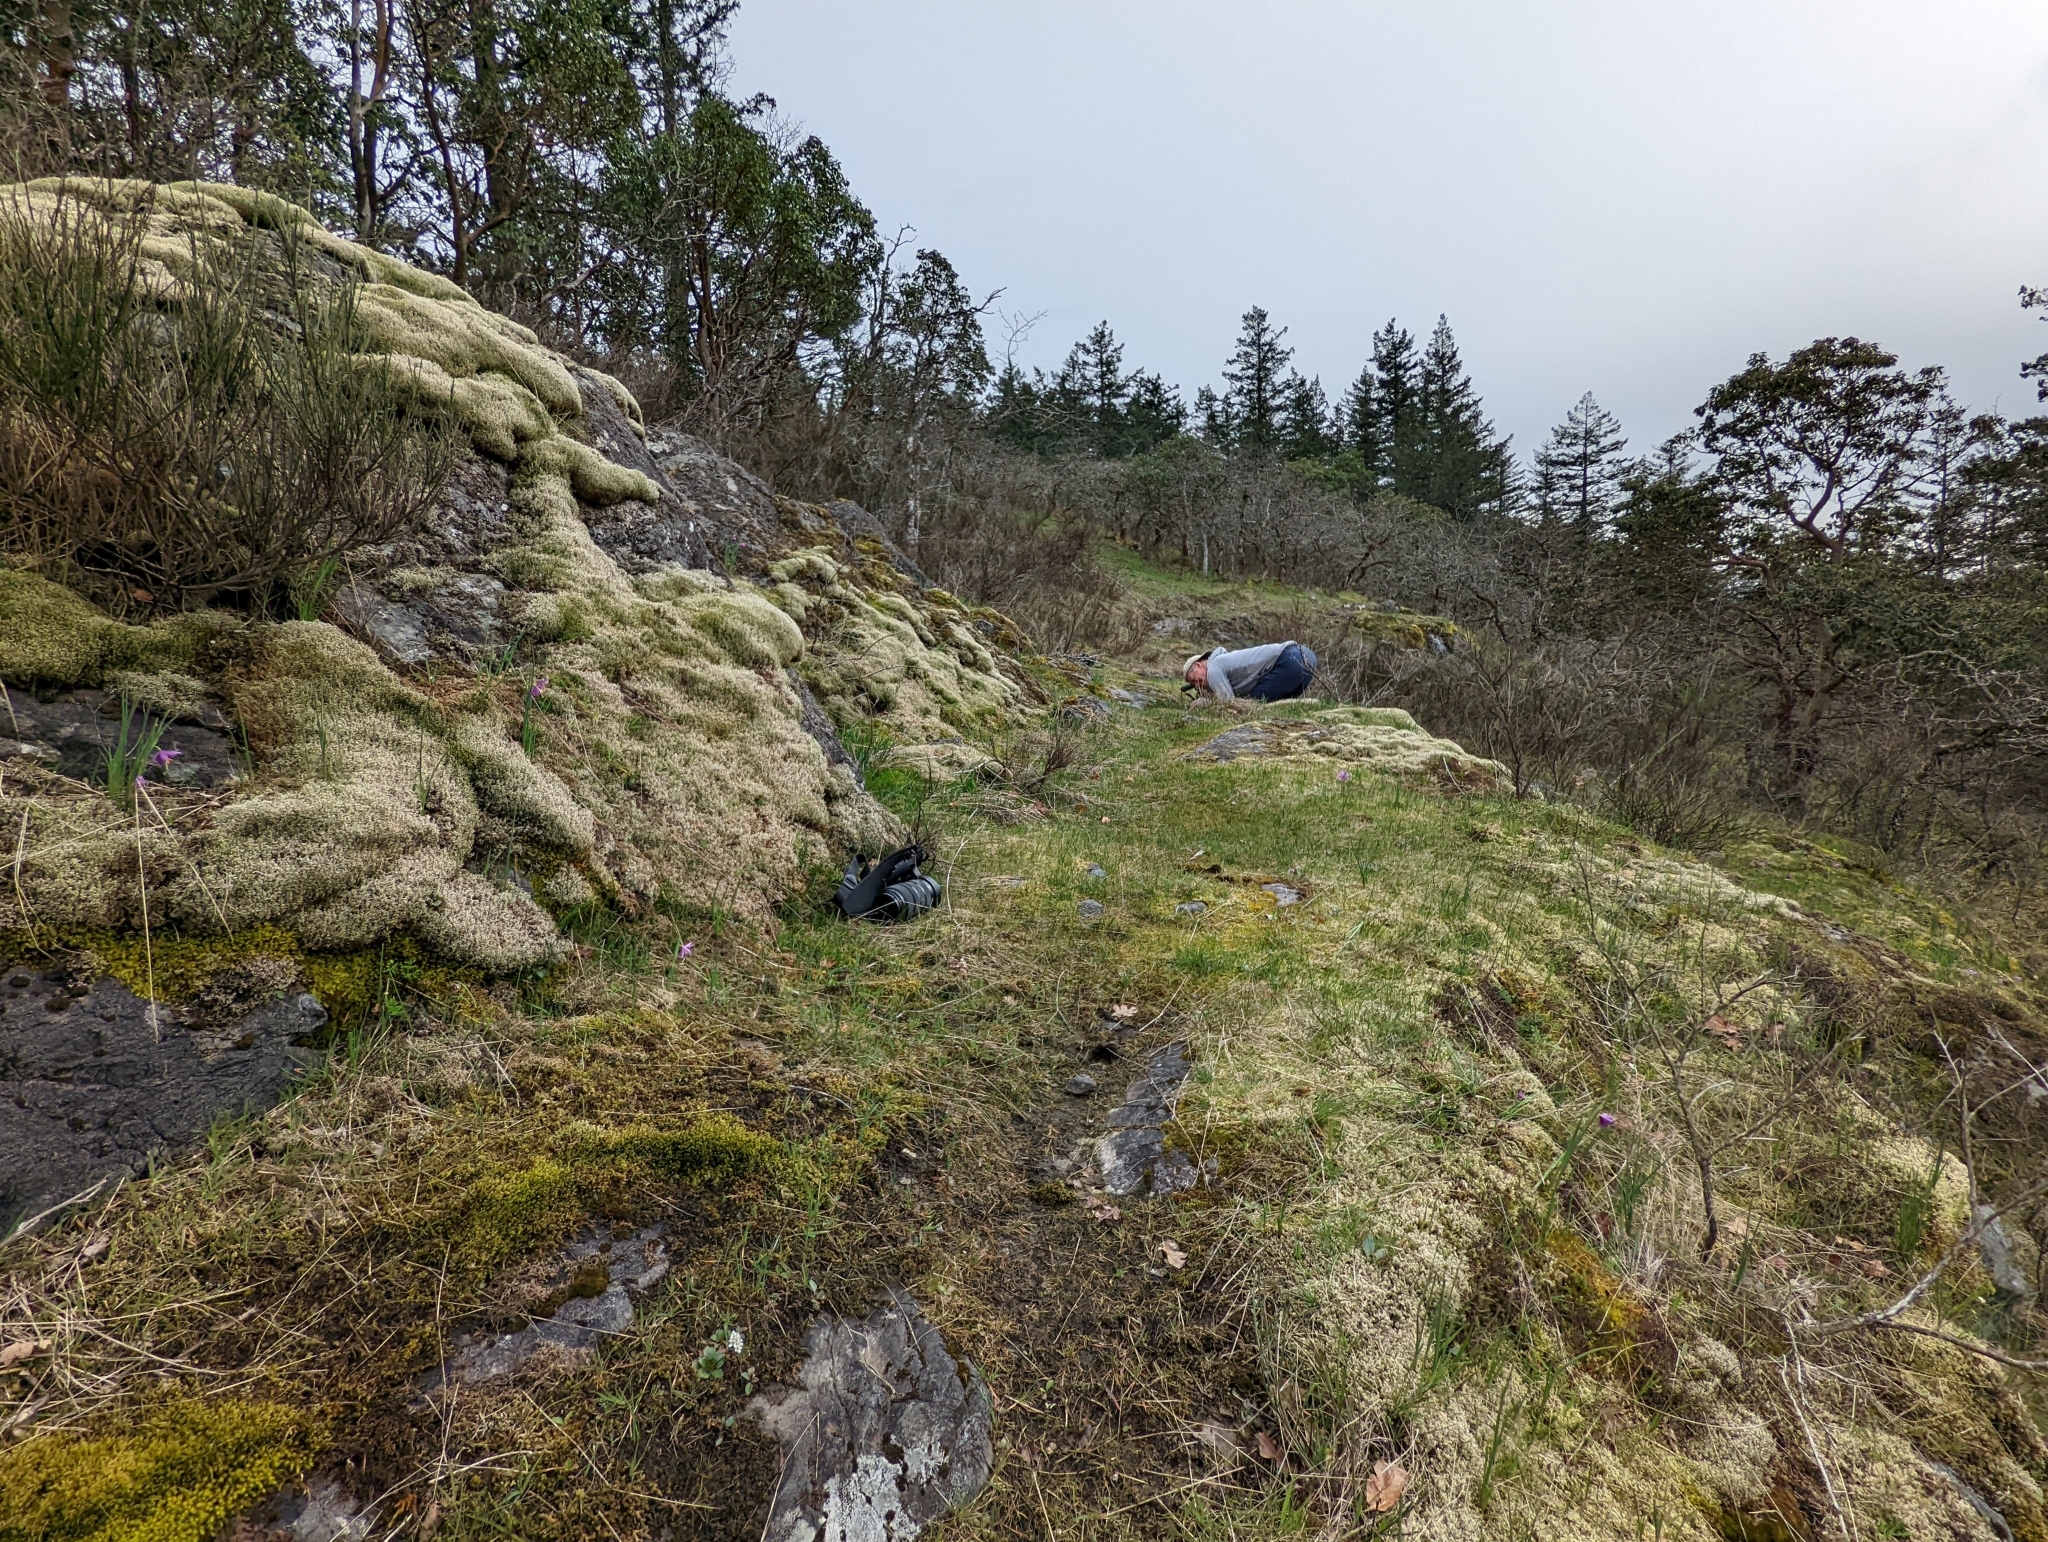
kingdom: Plantae
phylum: Marchantiophyta
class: Marchantiopsida
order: Marchantiales
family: Ricciaceae
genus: Riccia
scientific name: Riccia trichocarpa
